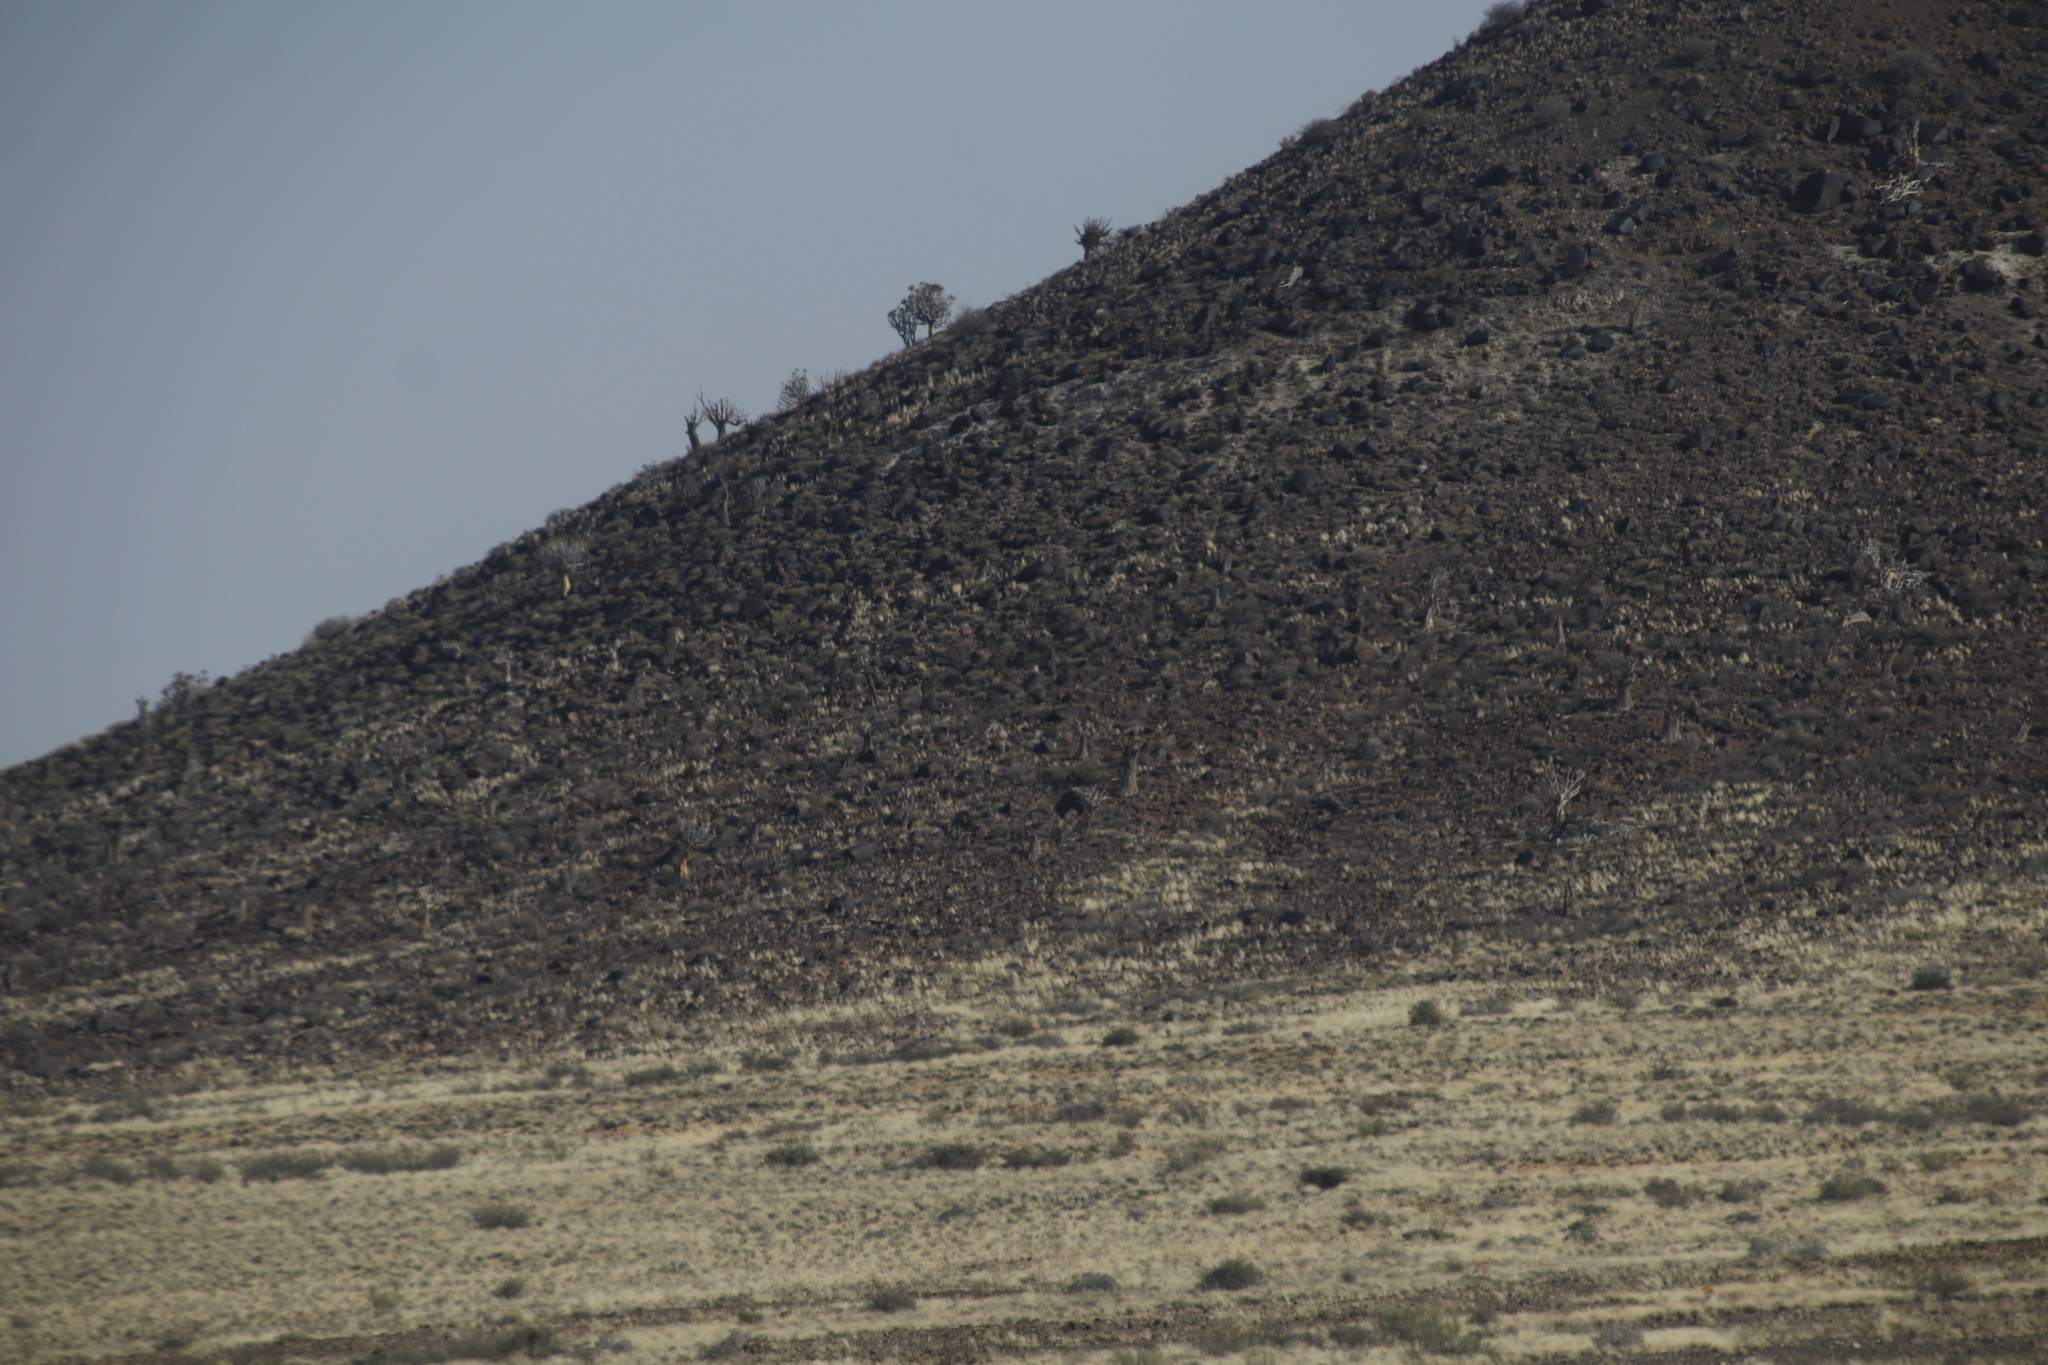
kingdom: Plantae
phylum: Tracheophyta
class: Liliopsida
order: Asparagales
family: Asphodelaceae
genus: Aloidendron
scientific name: Aloidendron dichotomum
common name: Quiver tree
